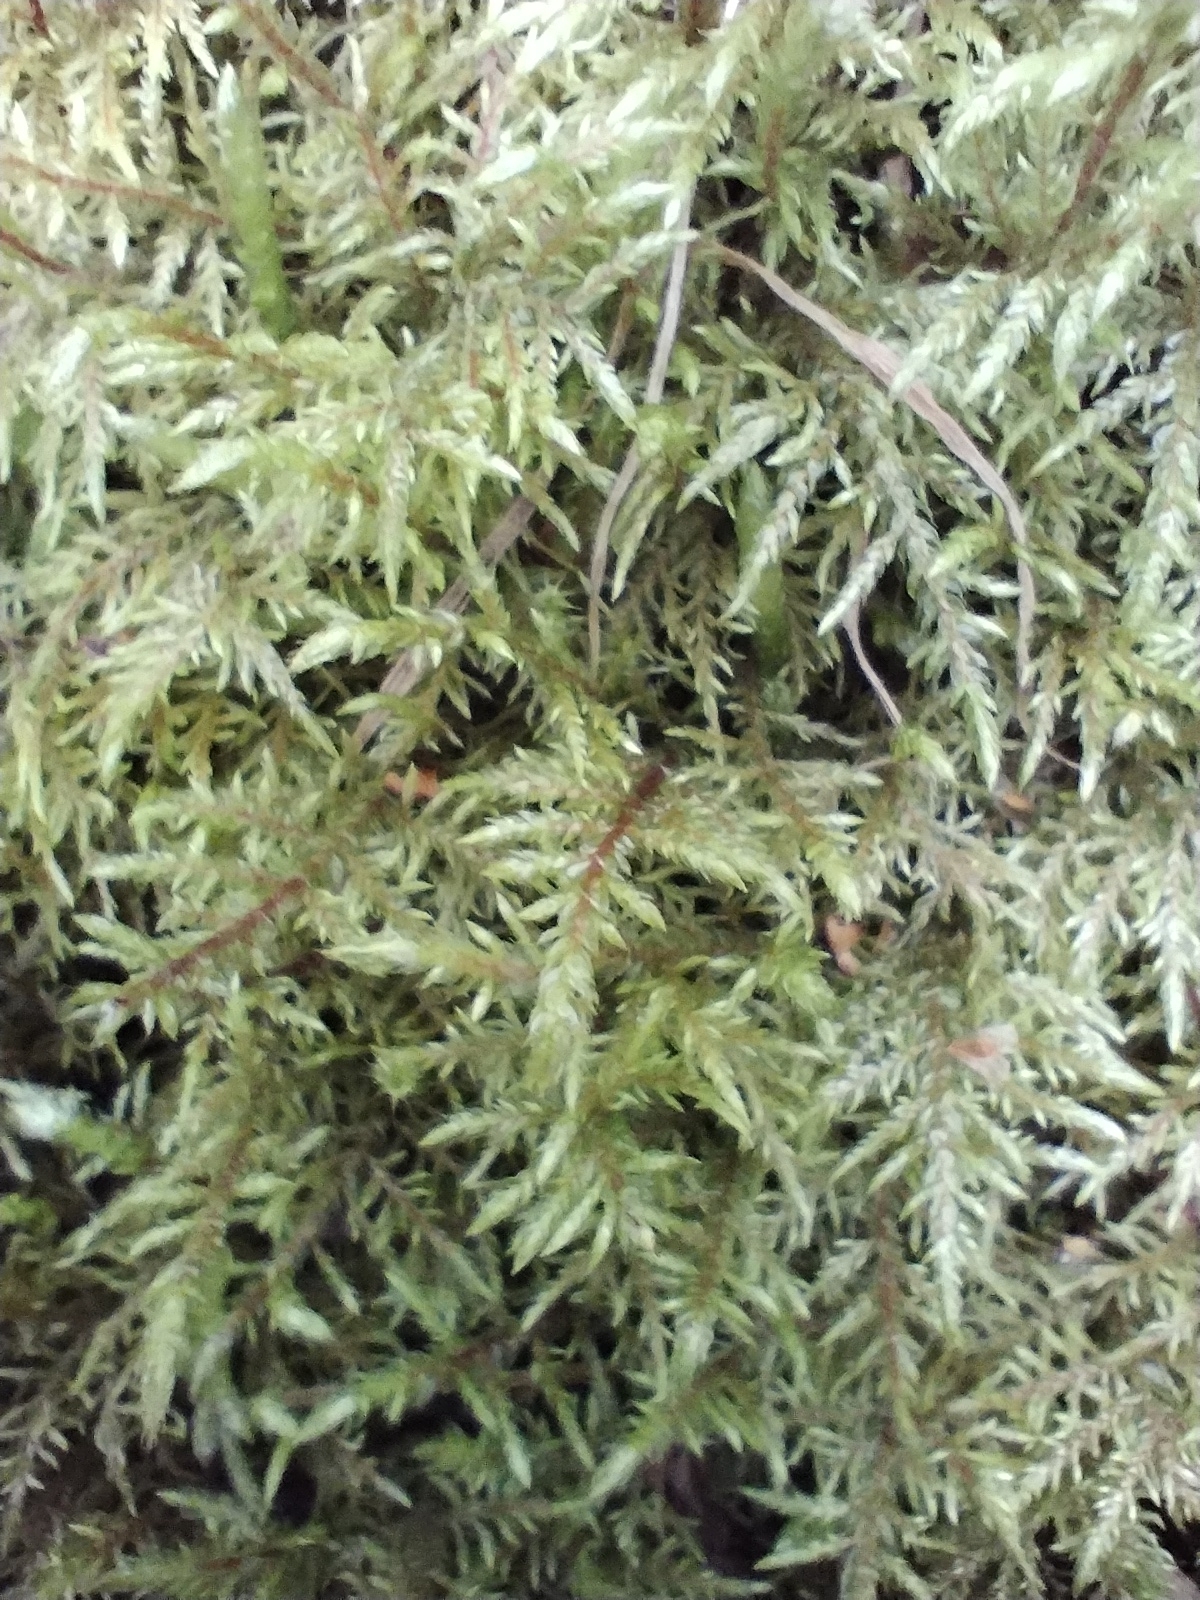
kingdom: Plantae
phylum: Bryophyta
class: Bryopsida
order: Hypnales
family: Hylocomiaceae
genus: Hylocomium
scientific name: Hylocomium splendens
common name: Stairstep moss
